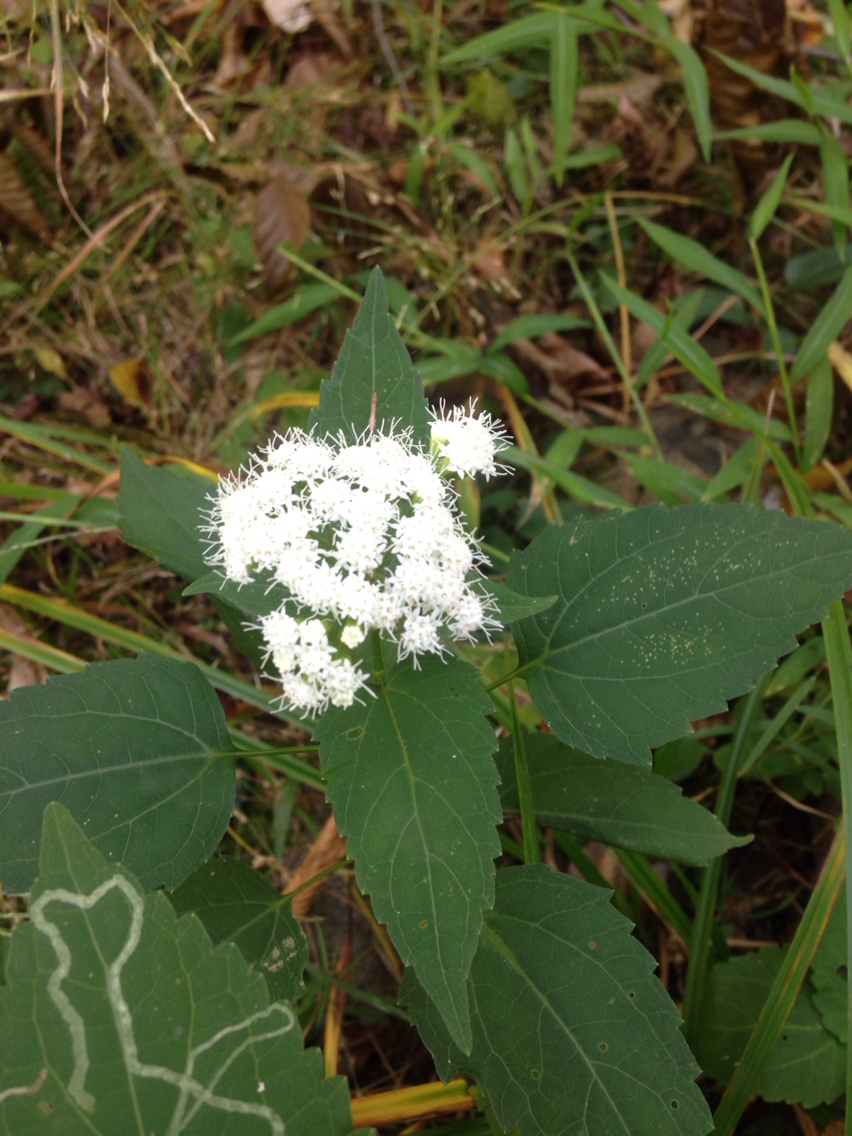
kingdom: Plantae
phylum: Tracheophyta
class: Magnoliopsida
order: Asterales
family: Asteraceae
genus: Ageratina
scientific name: Ageratina altissima
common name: White snakeroot
